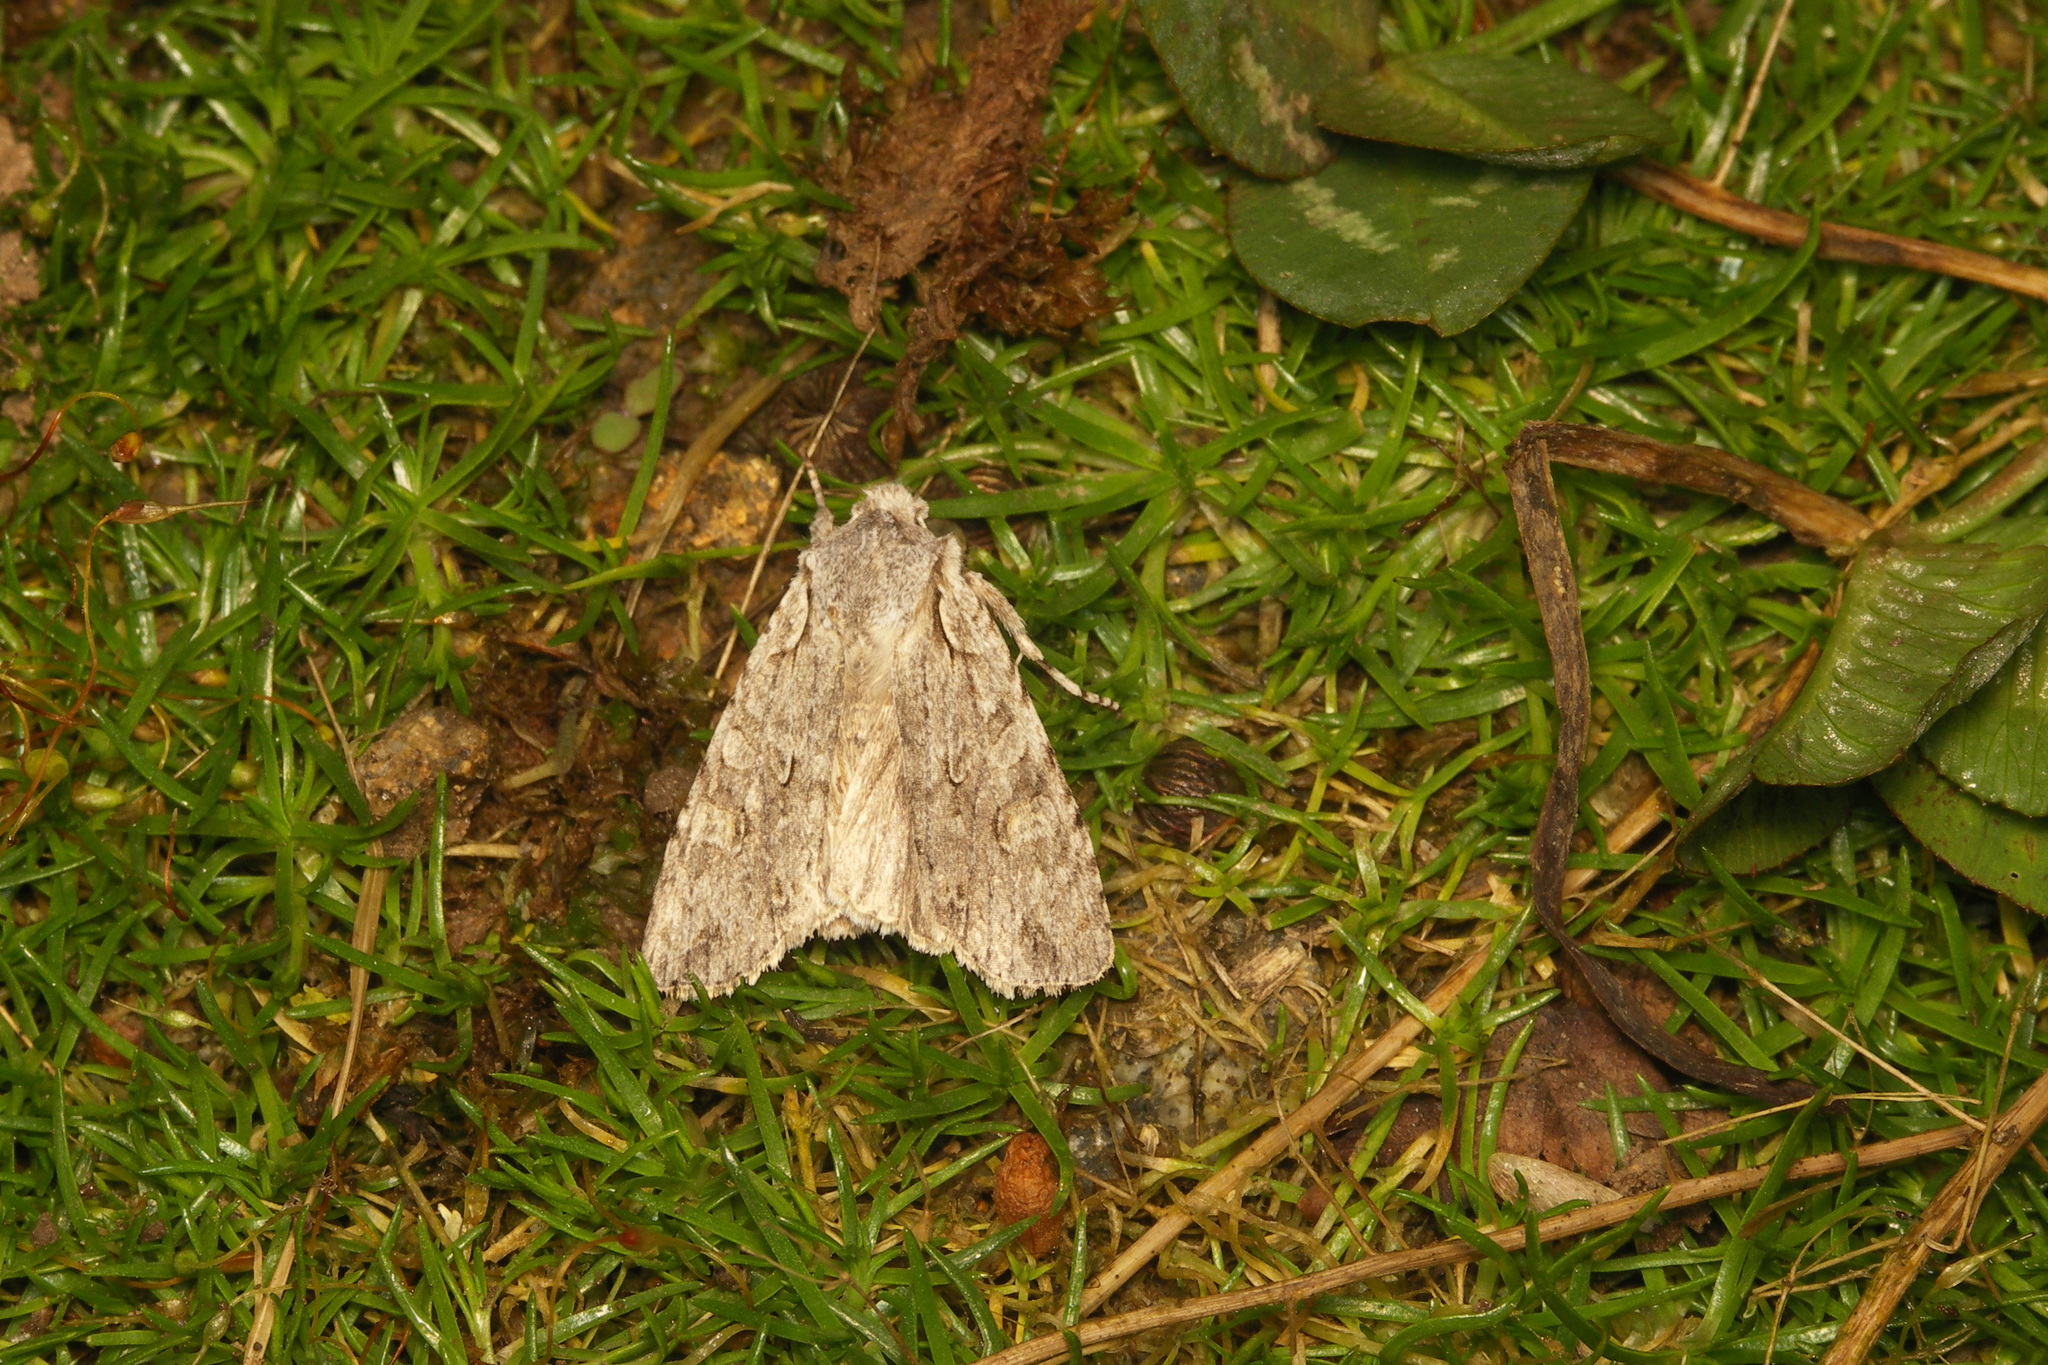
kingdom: Animalia
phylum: Arthropoda
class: Insecta
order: Lepidoptera
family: Noctuidae
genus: Lithophane
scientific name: Lithophane ornitopus
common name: Grey shoulder-knot
